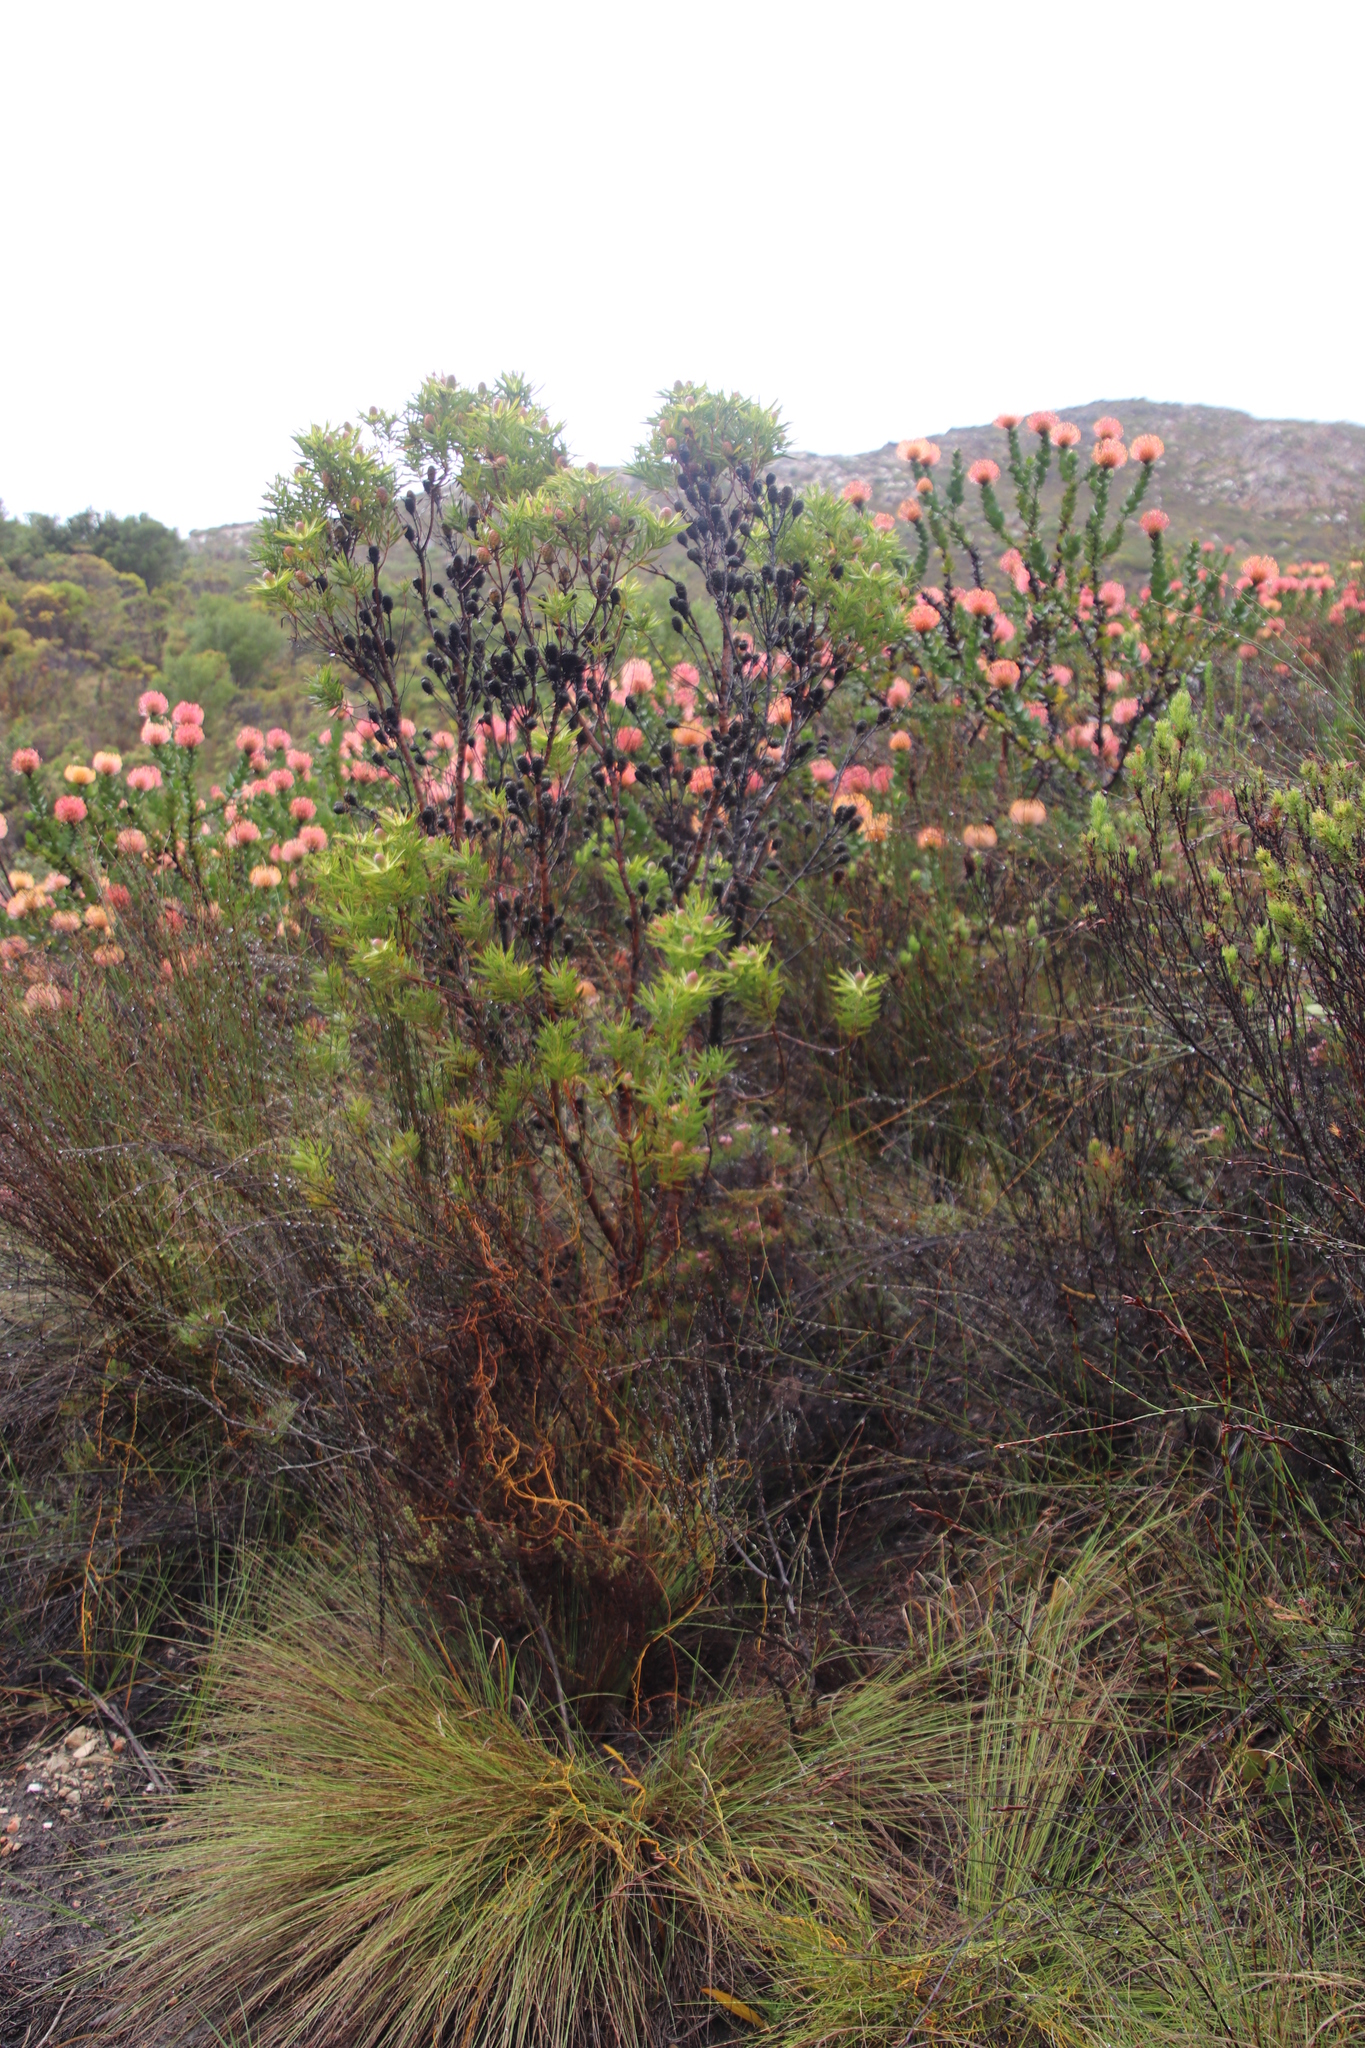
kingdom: Plantae
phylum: Tracheophyta
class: Magnoliopsida
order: Proteales
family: Proteaceae
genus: Leucadendron
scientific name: Leucadendron xanthoconus
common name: Sickle-leaf conebush
